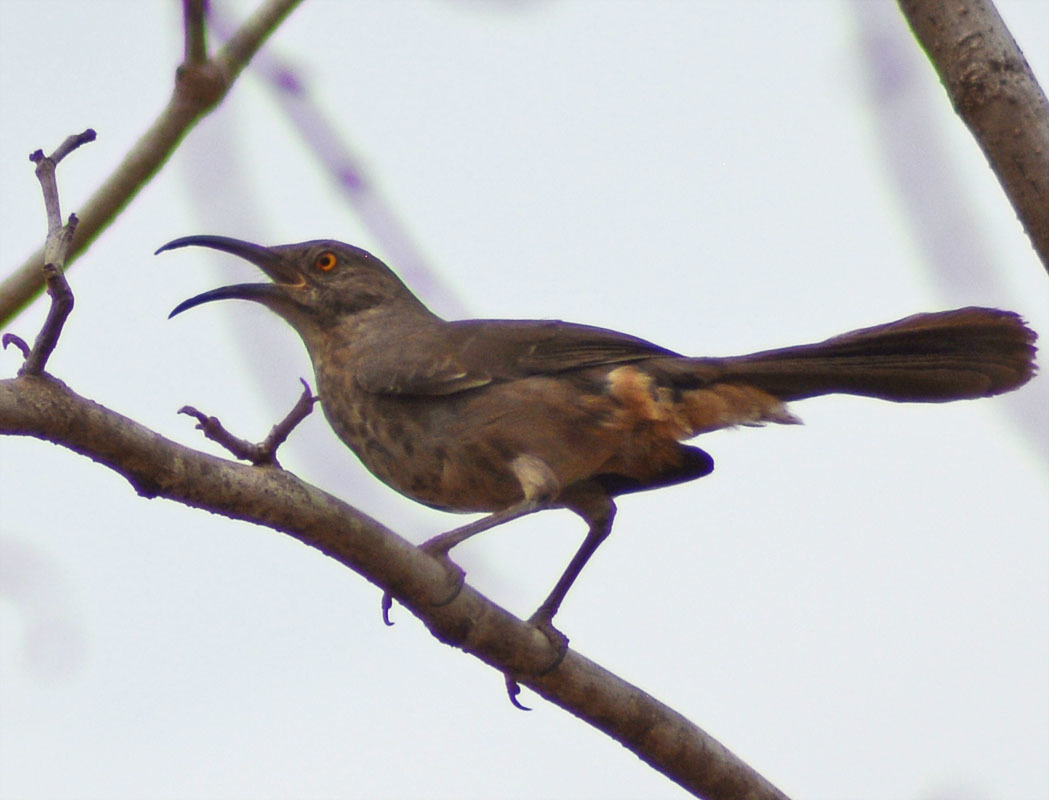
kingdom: Animalia
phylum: Chordata
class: Aves
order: Passeriformes
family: Mimidae
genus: Toxostoma
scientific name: Toxostoma curvirostre
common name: Curve-billed thrasher
